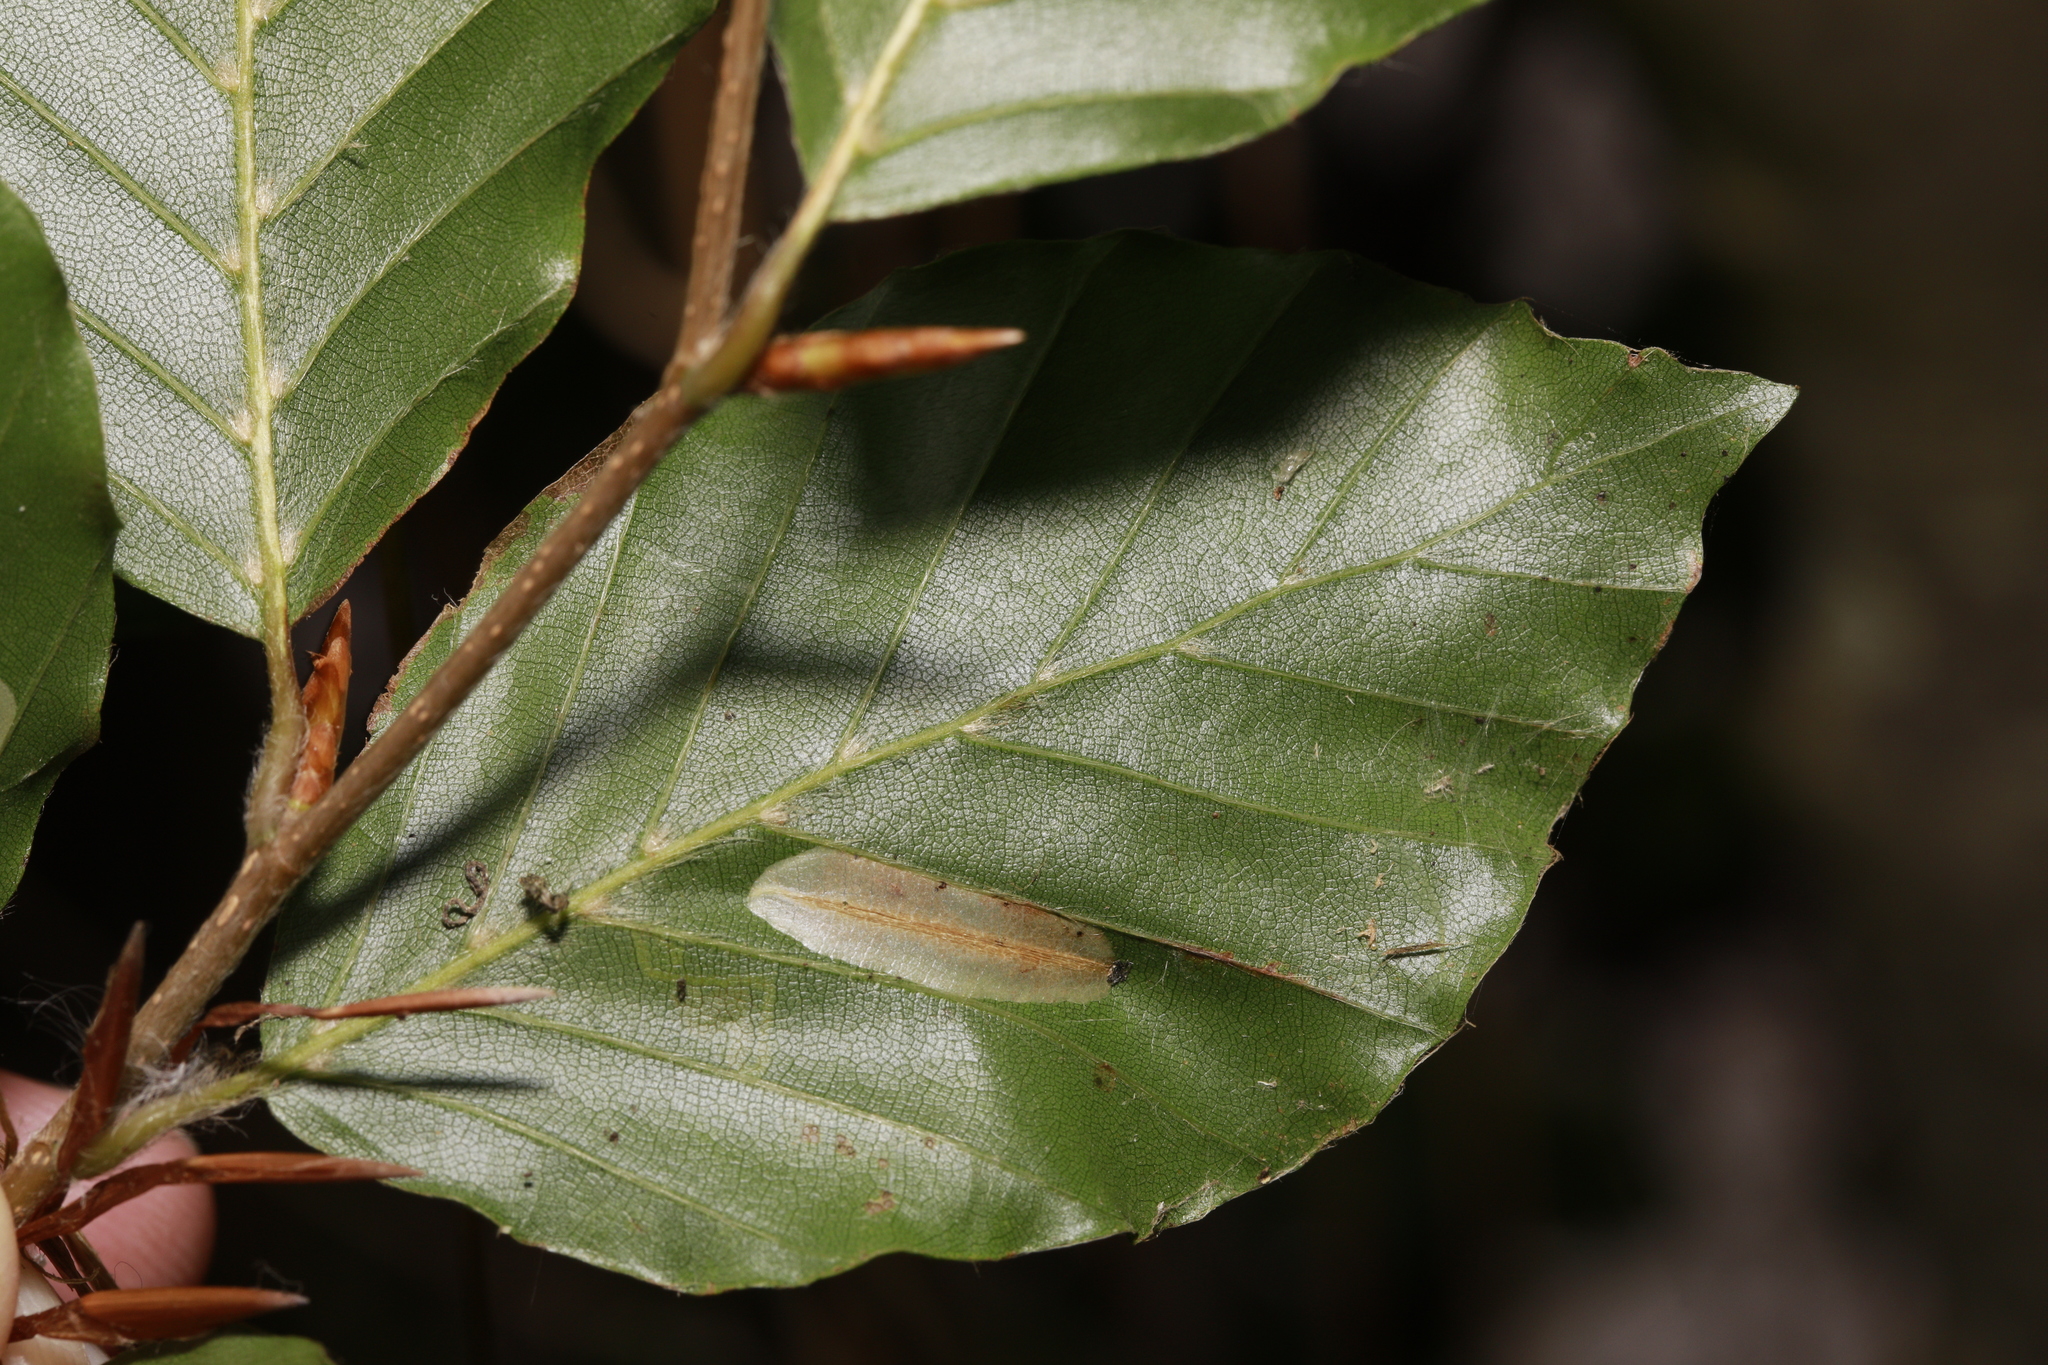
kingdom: Animalia
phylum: Arthropoda
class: Insecta
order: Lepidoptera
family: Gracillariidae
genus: Phyllonorycter
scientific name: Phyllonorycter maestingella
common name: Beech midget
